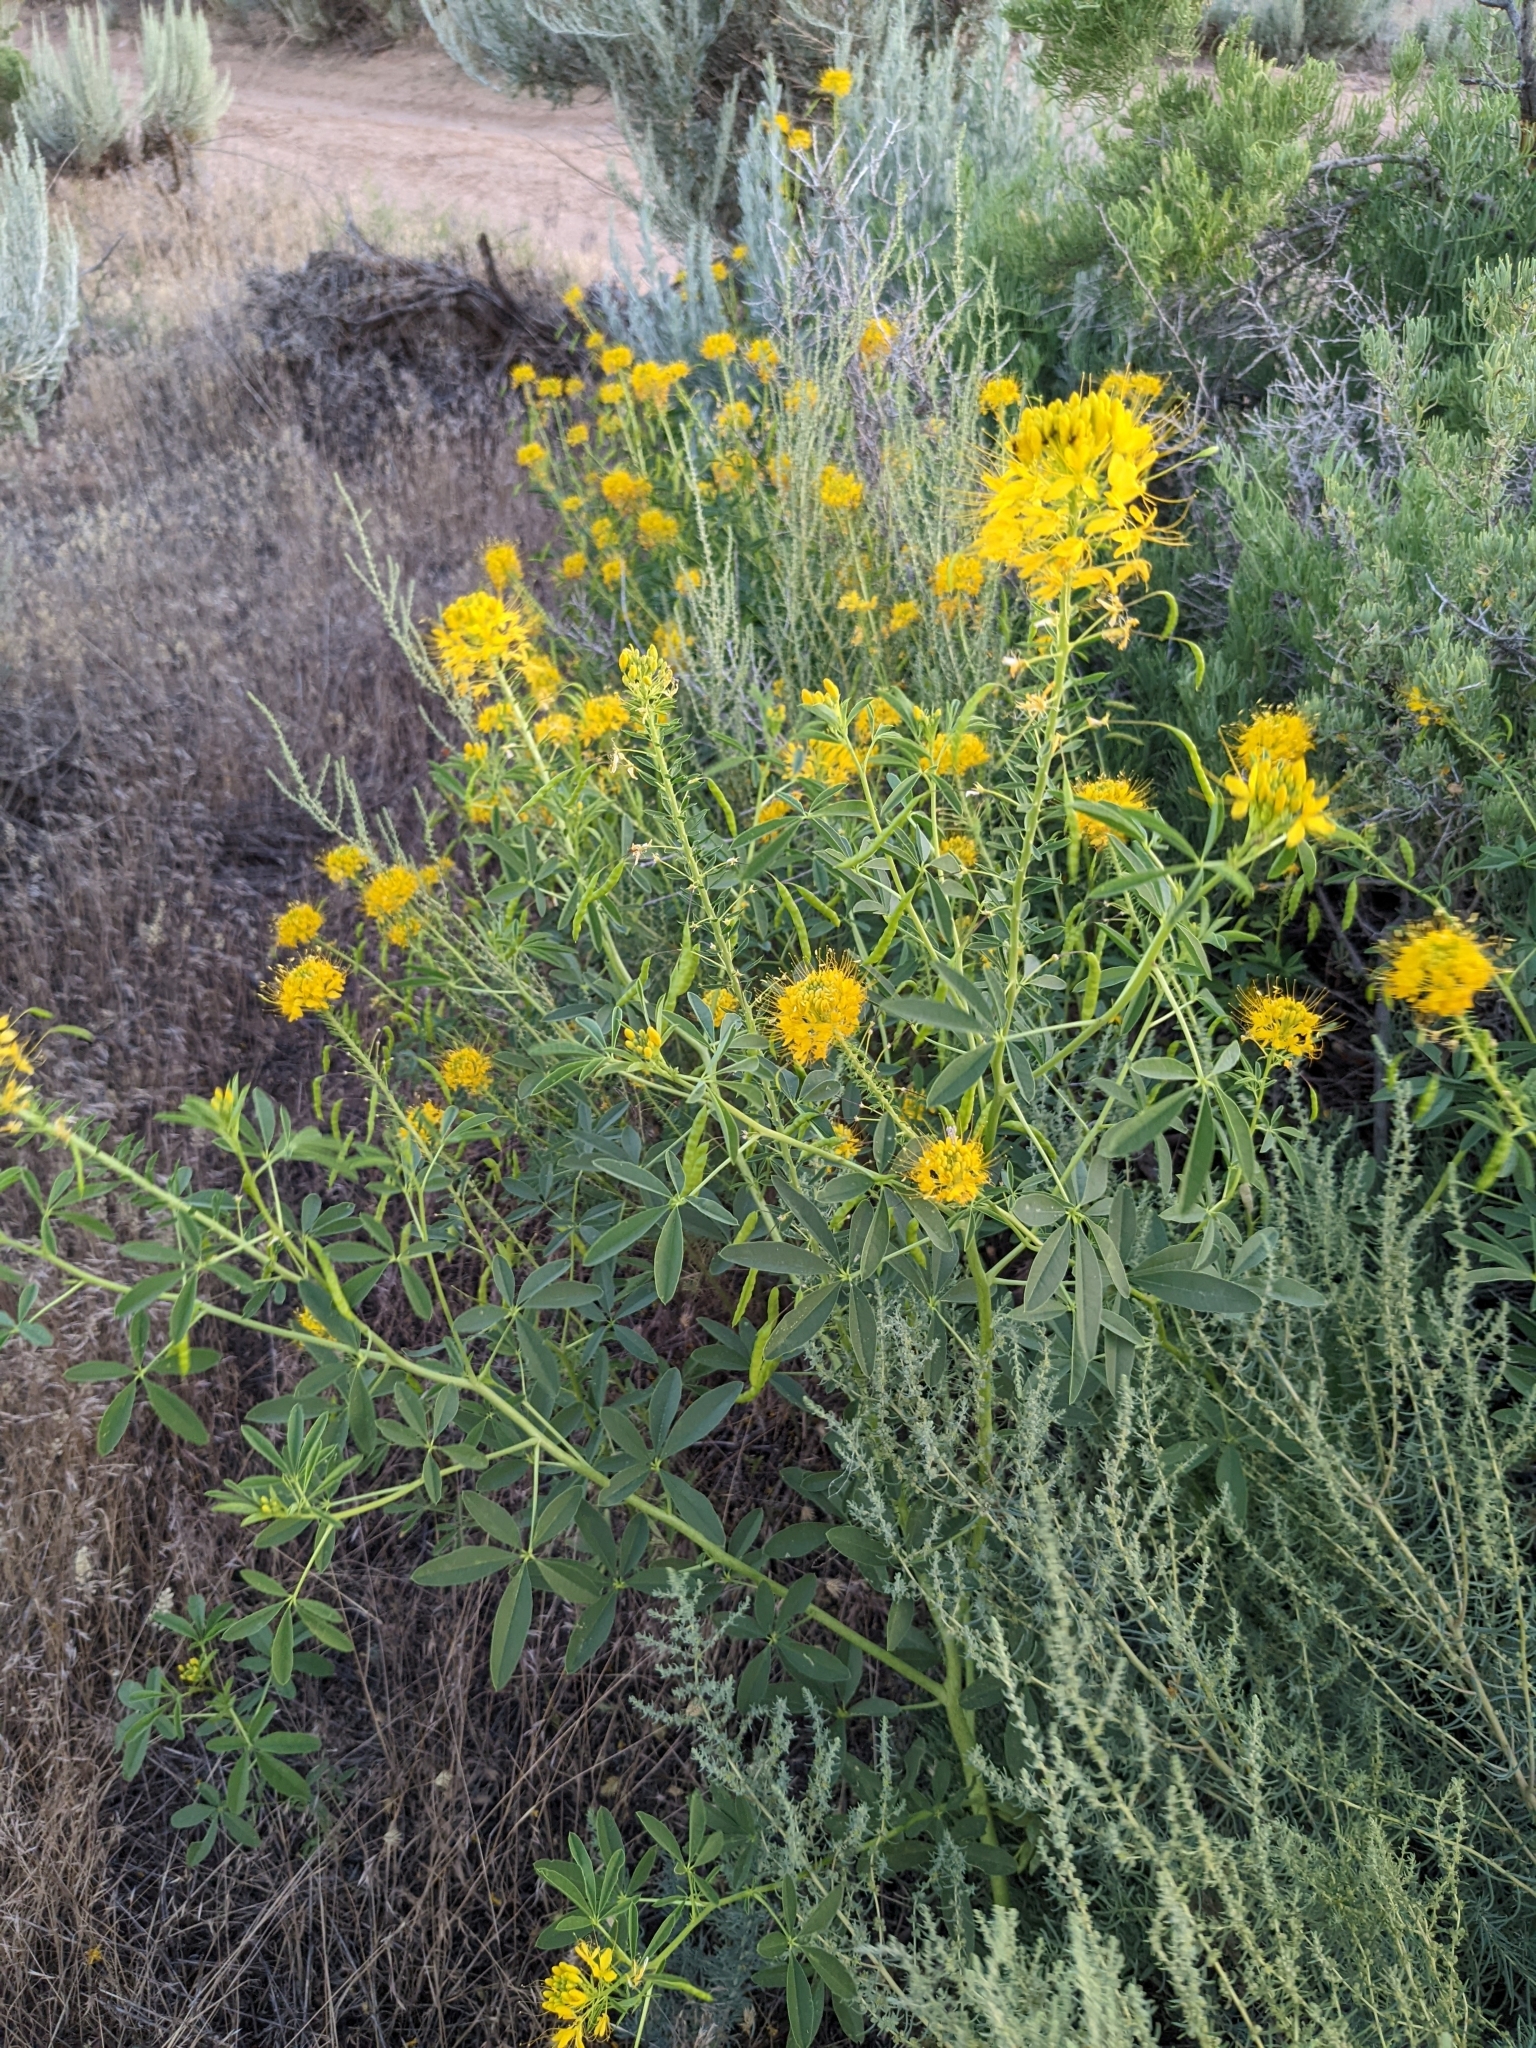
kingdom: Plantae
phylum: Tracheophyta
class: Magnoliopsida
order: Brassicales
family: Cleomaceae
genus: Cleomella
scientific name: Cleomella lutea
